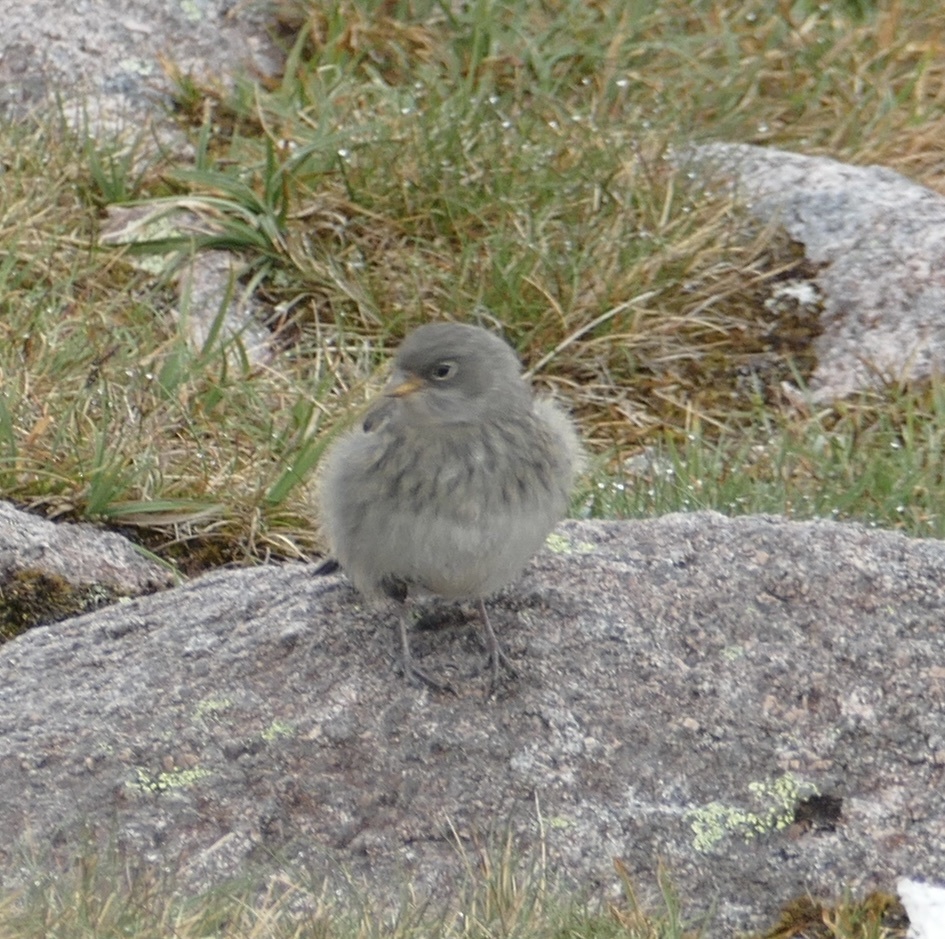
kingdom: Animalia
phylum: Chordata
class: Aves
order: Passeriformes
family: Calcariidae
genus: Plectrophenax
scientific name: Plectrophenax nivalis
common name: Snow bunting
